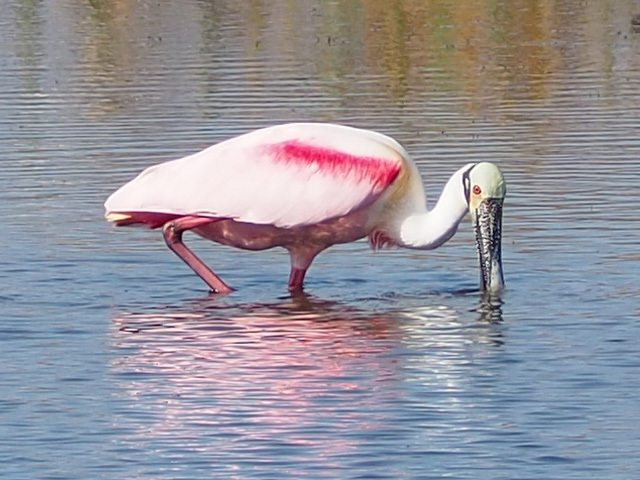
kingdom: Animalia
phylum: Chordata
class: Aves
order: Pelecaniformes
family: Threskiornithidae
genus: Platalea
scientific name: Platalea ajaja
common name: Roseate spoonbill
